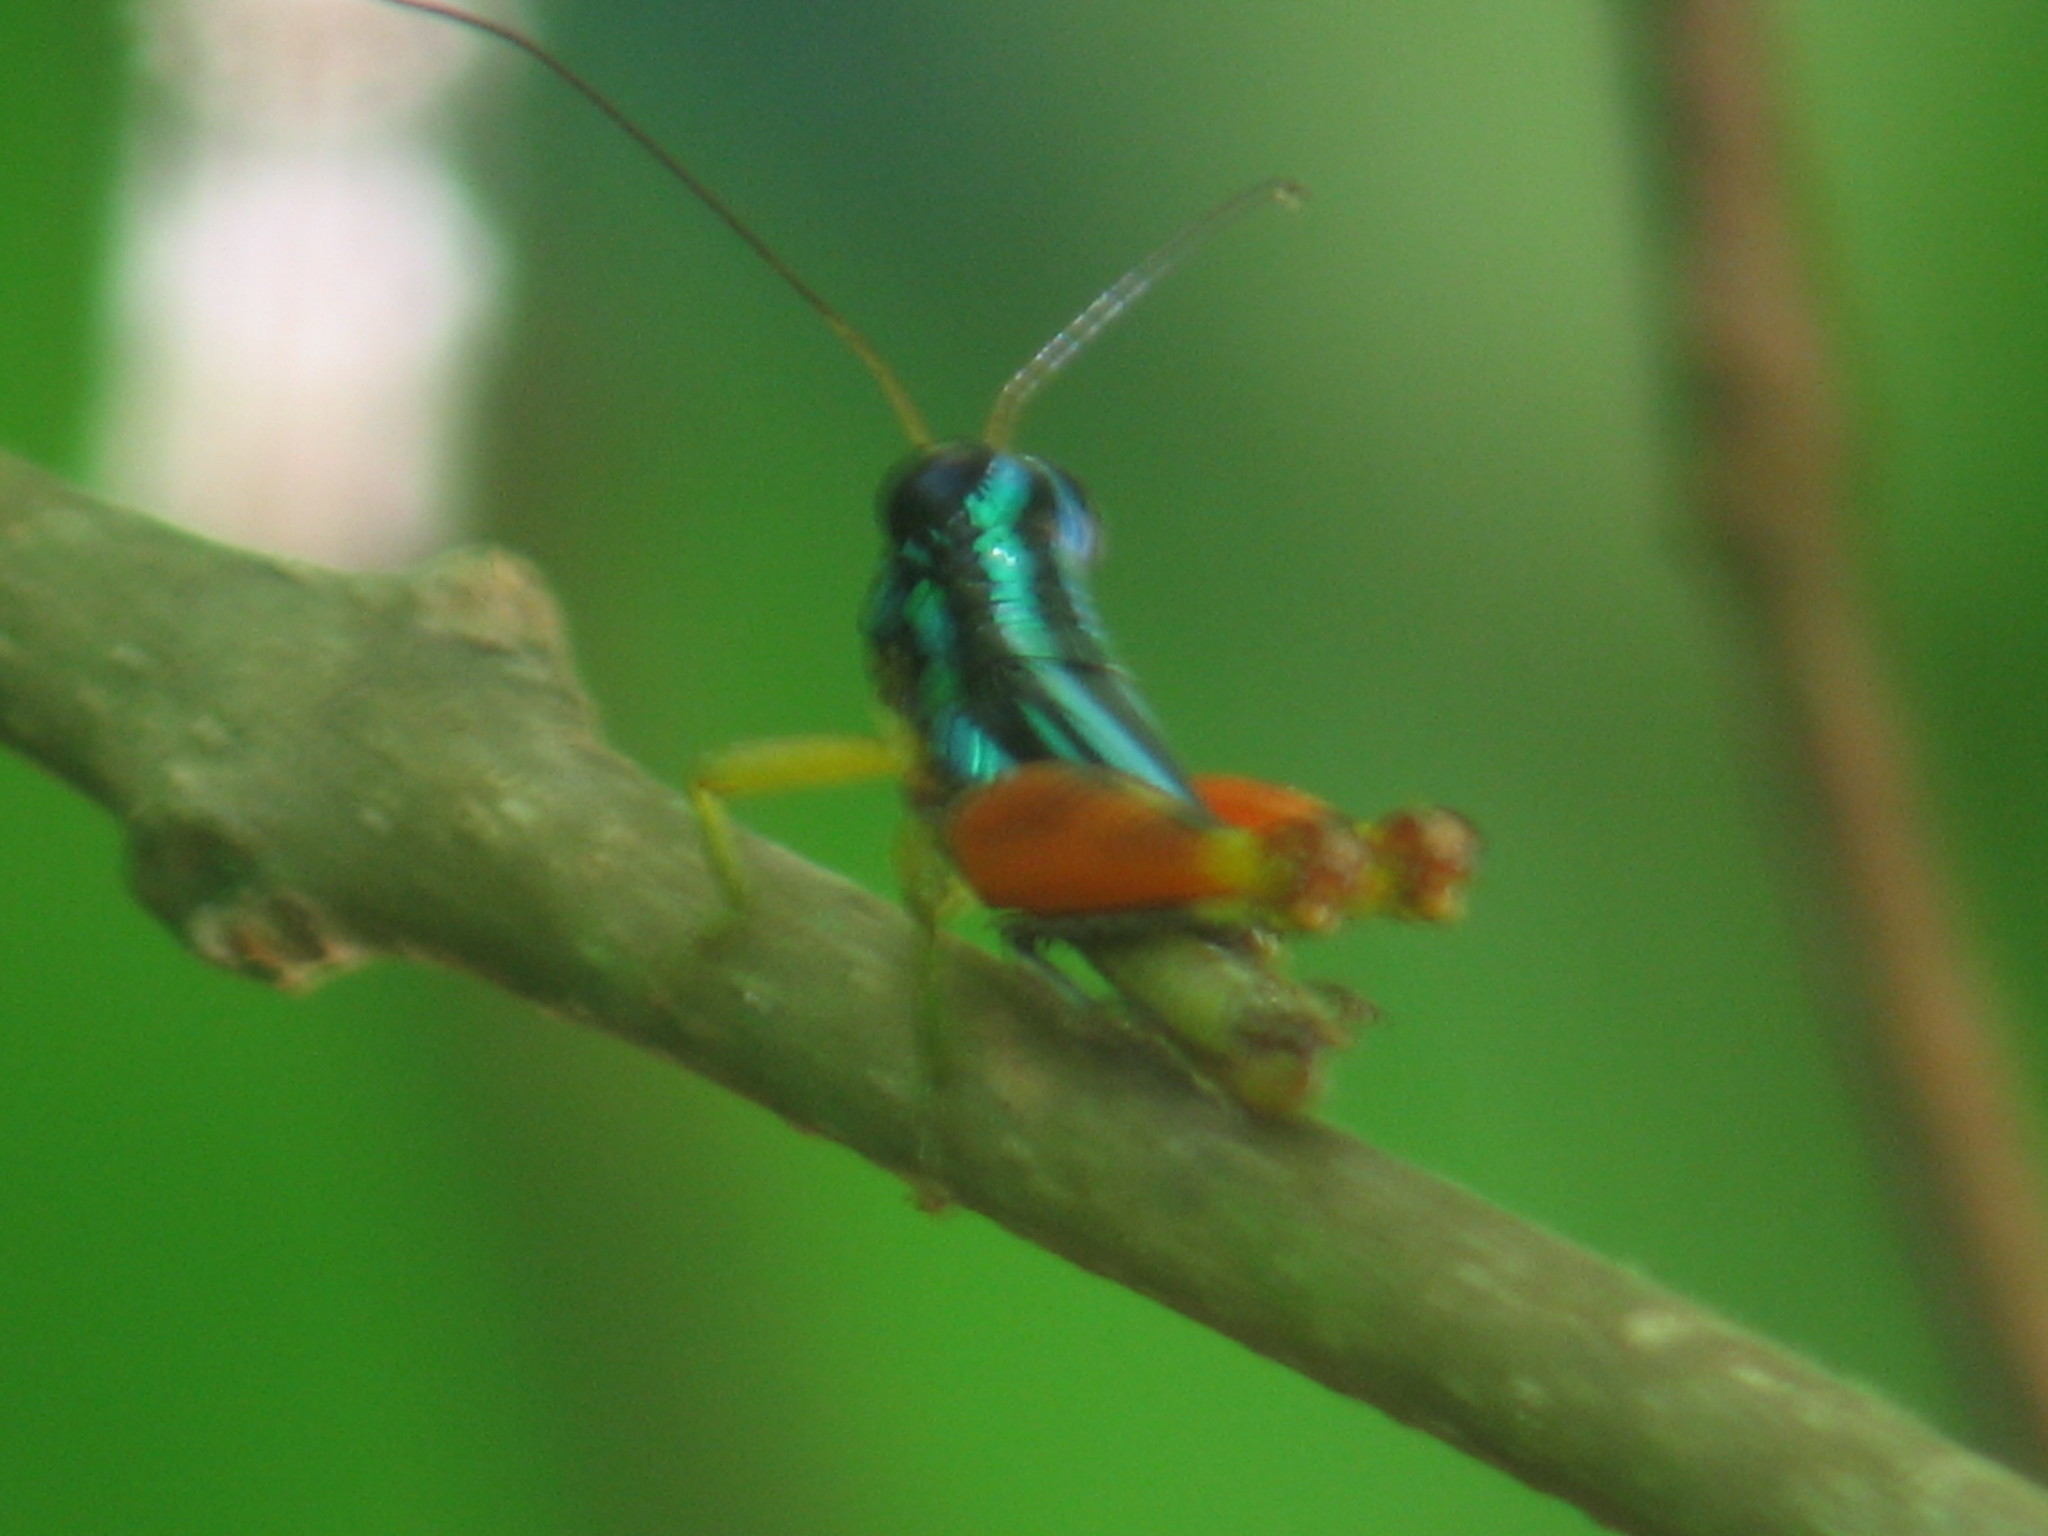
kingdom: Animalia
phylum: Arthropoda
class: Insecta
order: Orthoptera
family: Romaleidae
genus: Taeniophora
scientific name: Taeniophora femorata
